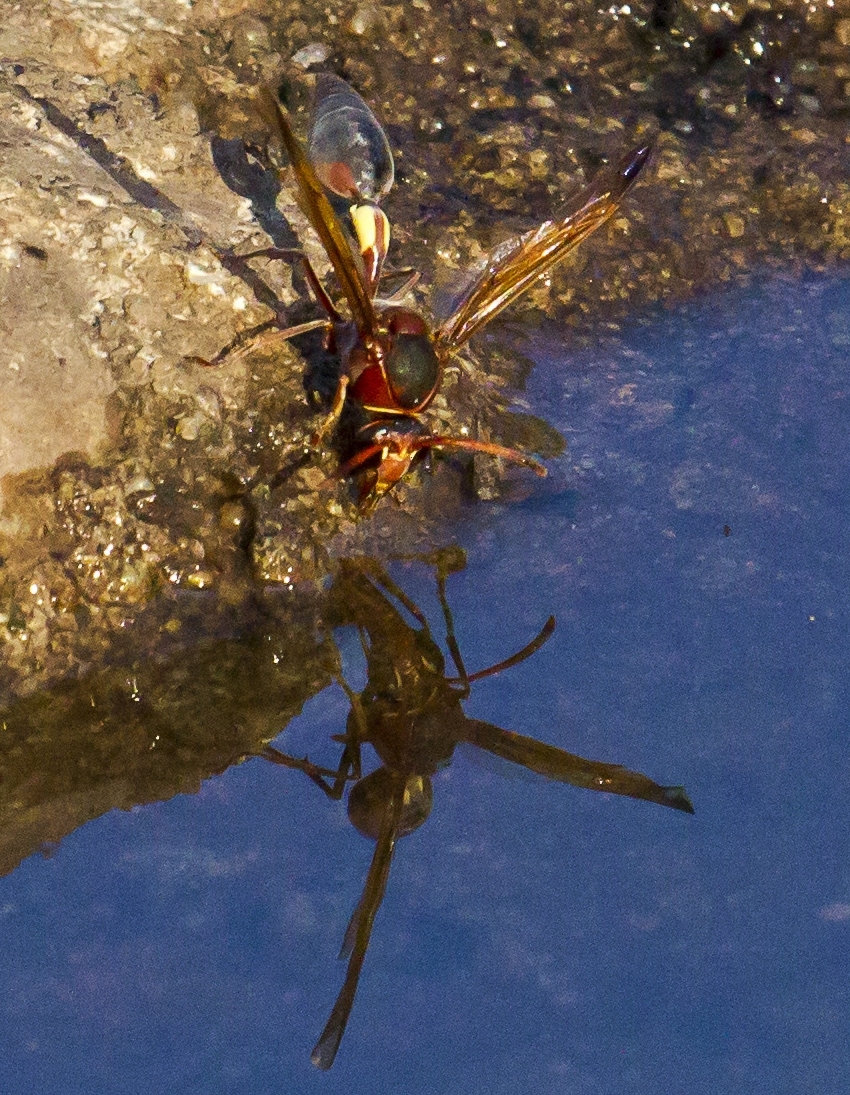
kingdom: Animalia
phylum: Arthropoda
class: Insecta
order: Hymenoptera
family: Eumenidae
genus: Delta
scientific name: Delta fenestrale
